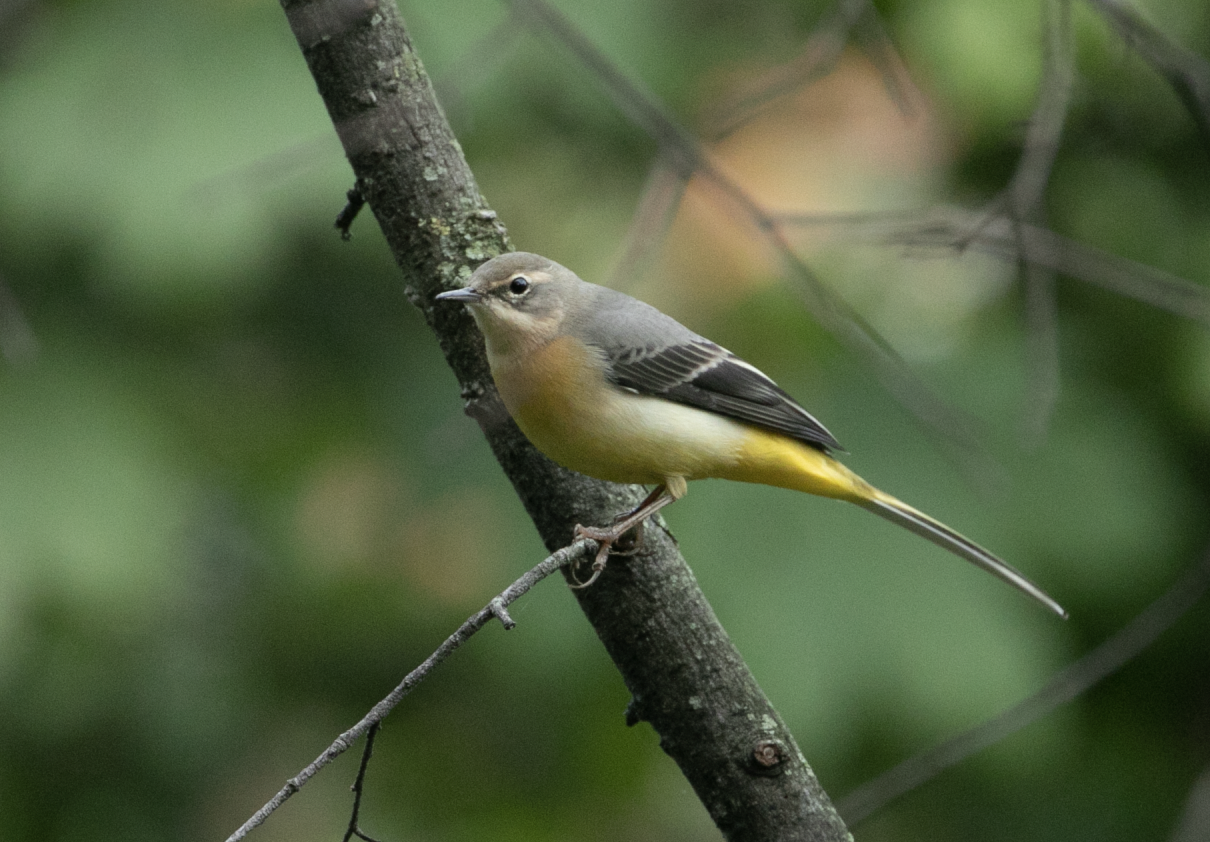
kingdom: Animalia
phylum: Chordata
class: Aves
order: Passeriformes
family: Motacillidae
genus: Motacilla
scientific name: Motacilla cinerea
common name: Grey wagtail
